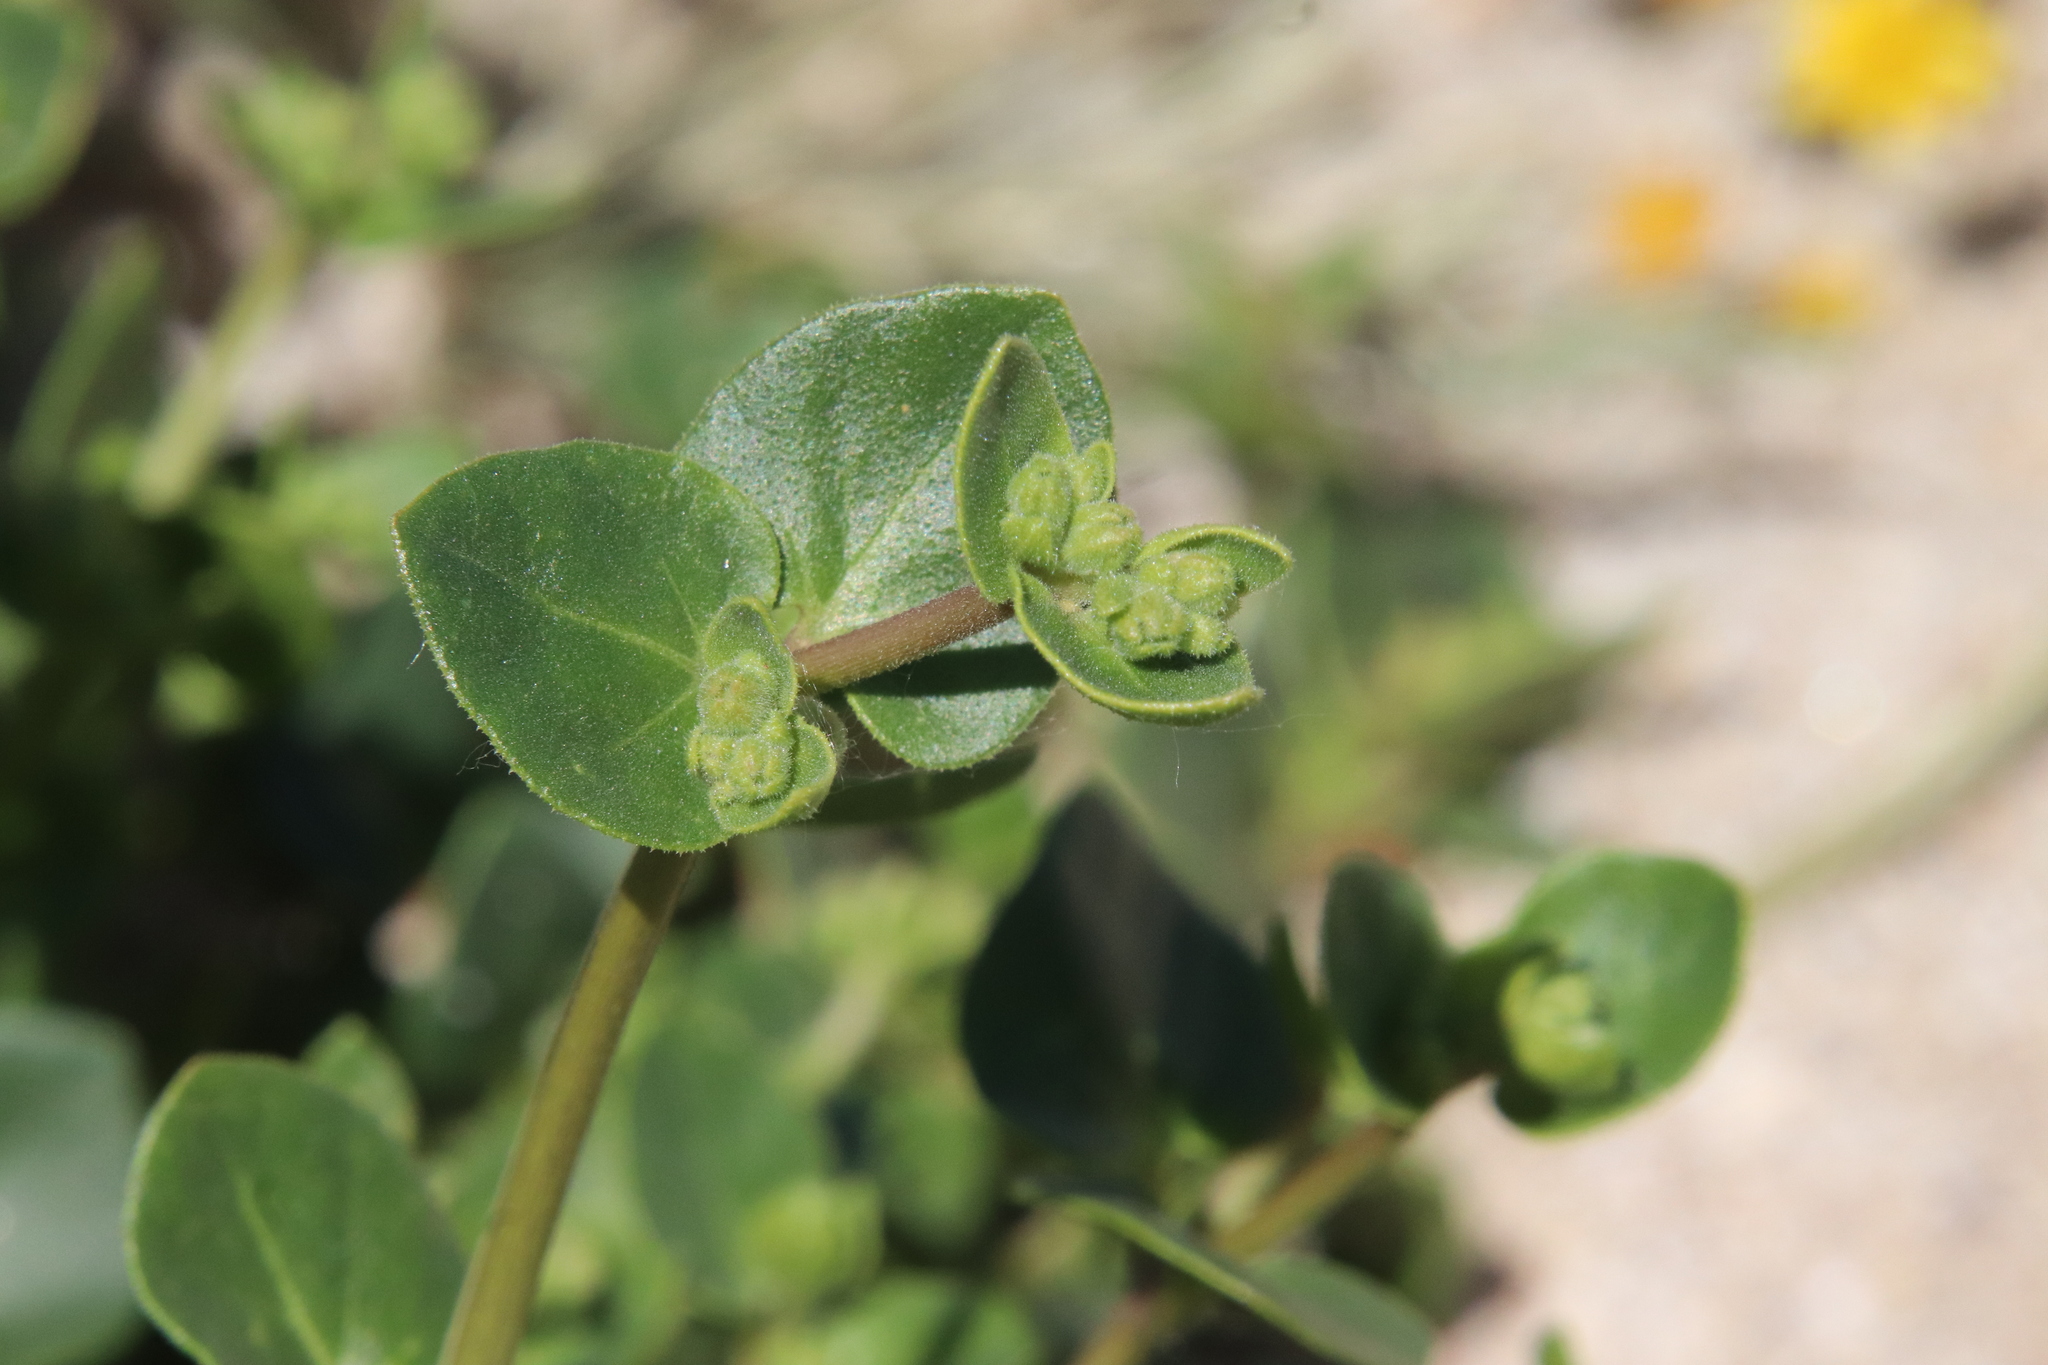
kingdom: Plantae
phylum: Tracheophyta
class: Magnoliopsida
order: Caryophyllales
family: Nyctaginaceae
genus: Mirabilis
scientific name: Mirabilis laevis
